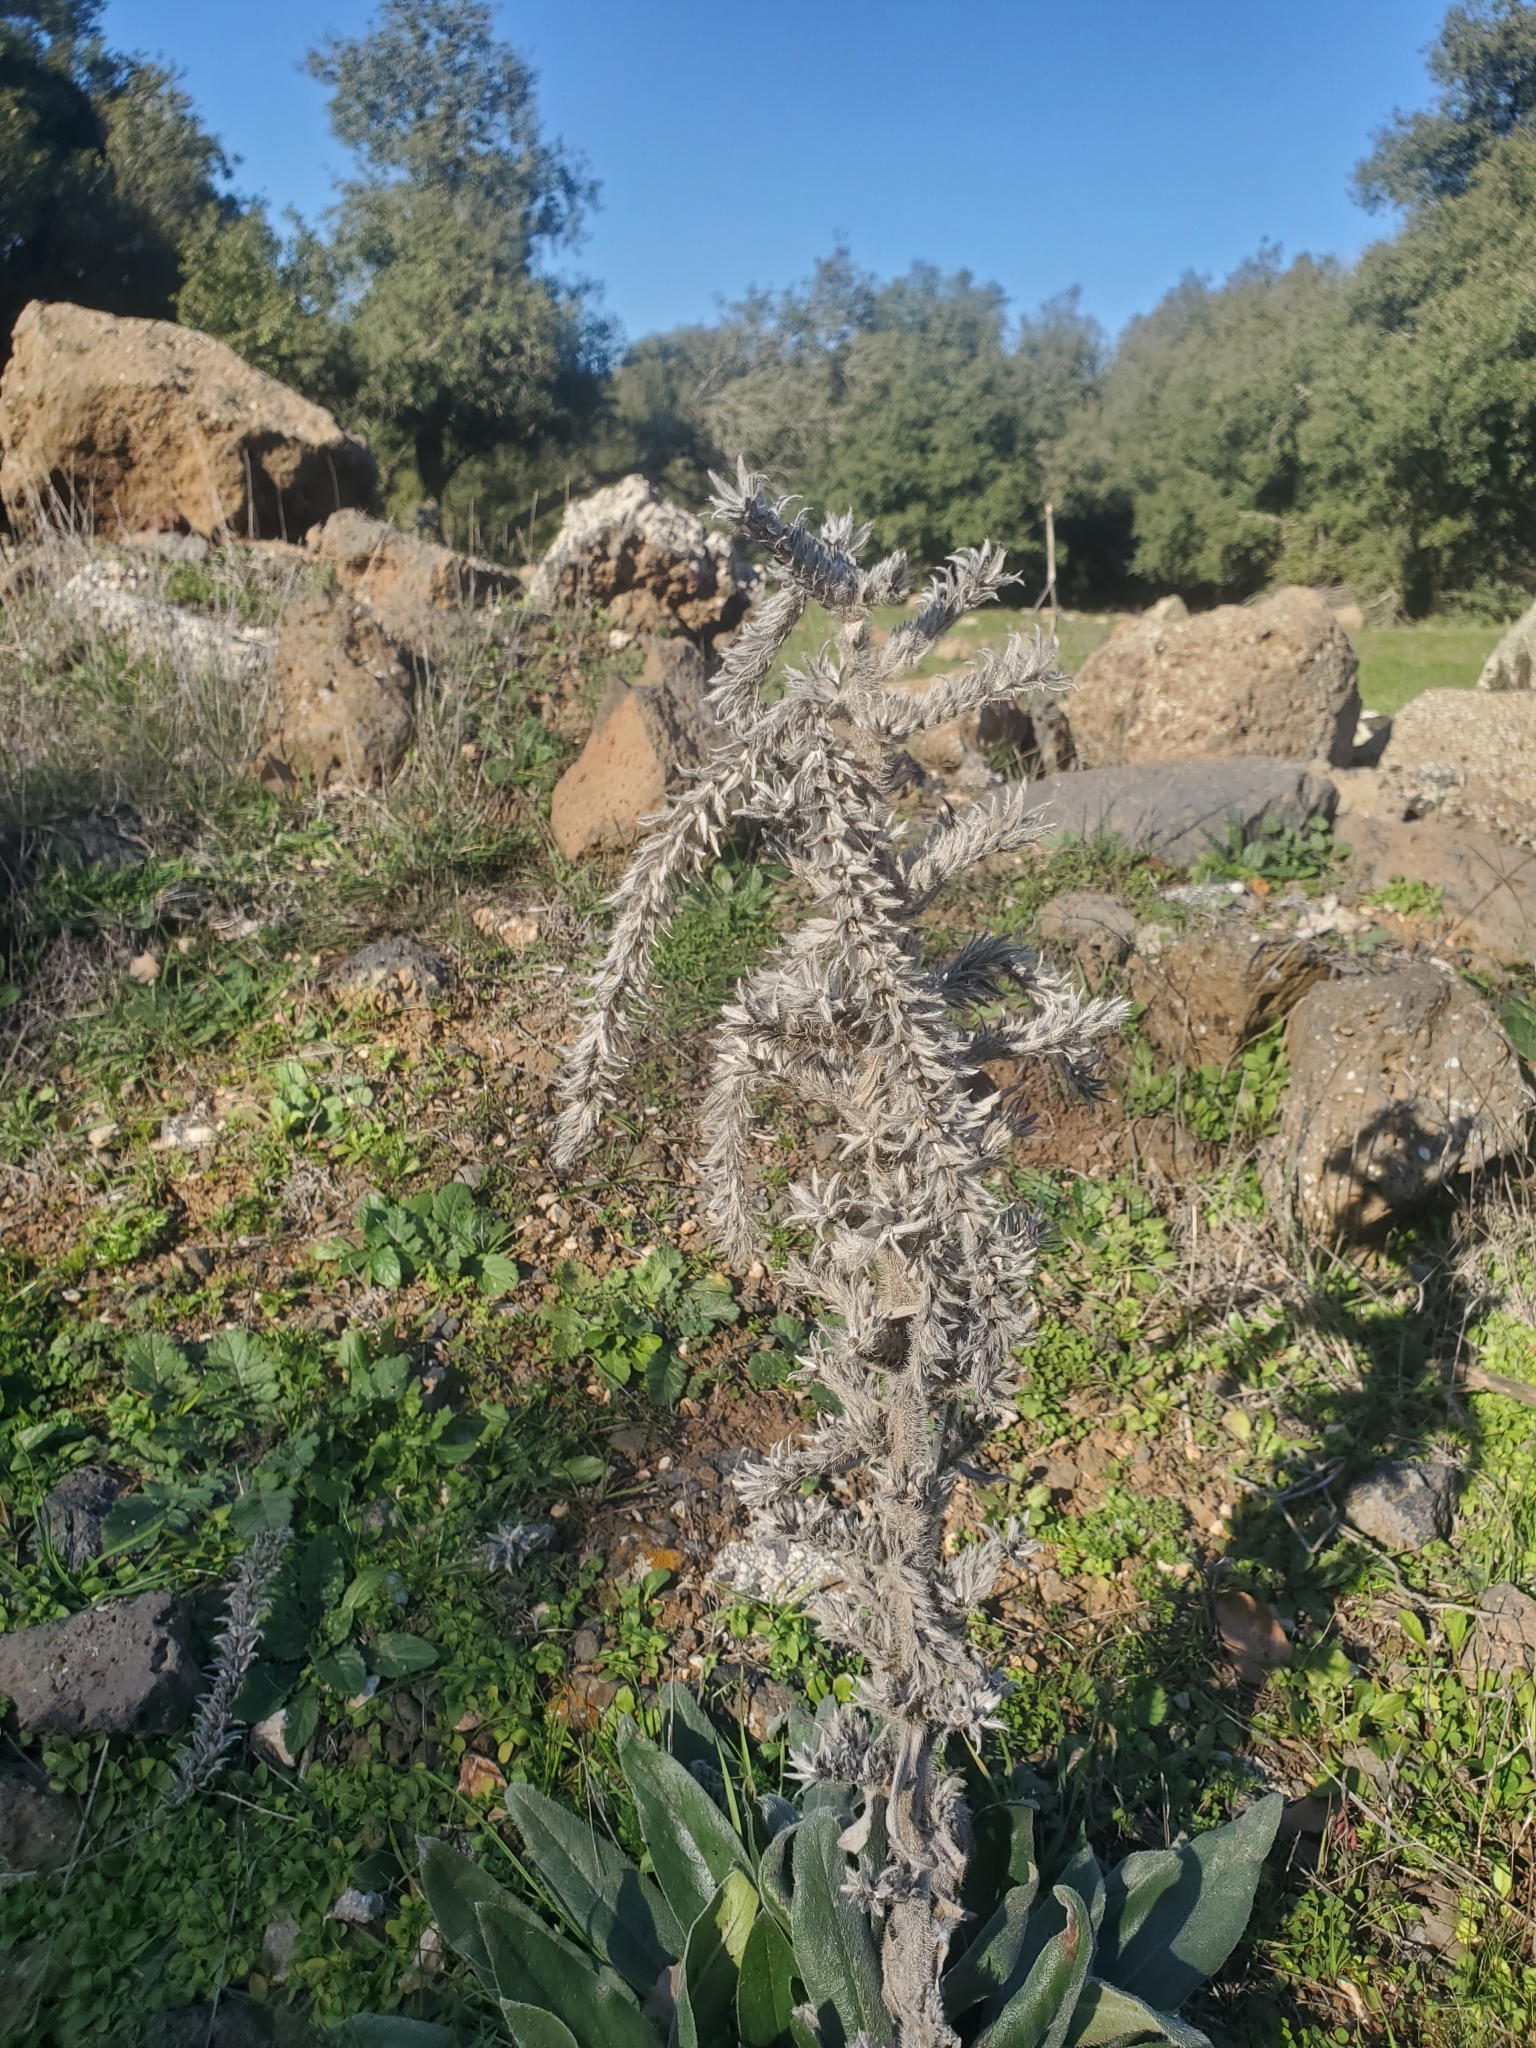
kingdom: Plantae
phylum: Tracheophyta
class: Magnoliopsida
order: Boraginales
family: Boraginaceae
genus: Echium
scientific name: Echium glomeratum
